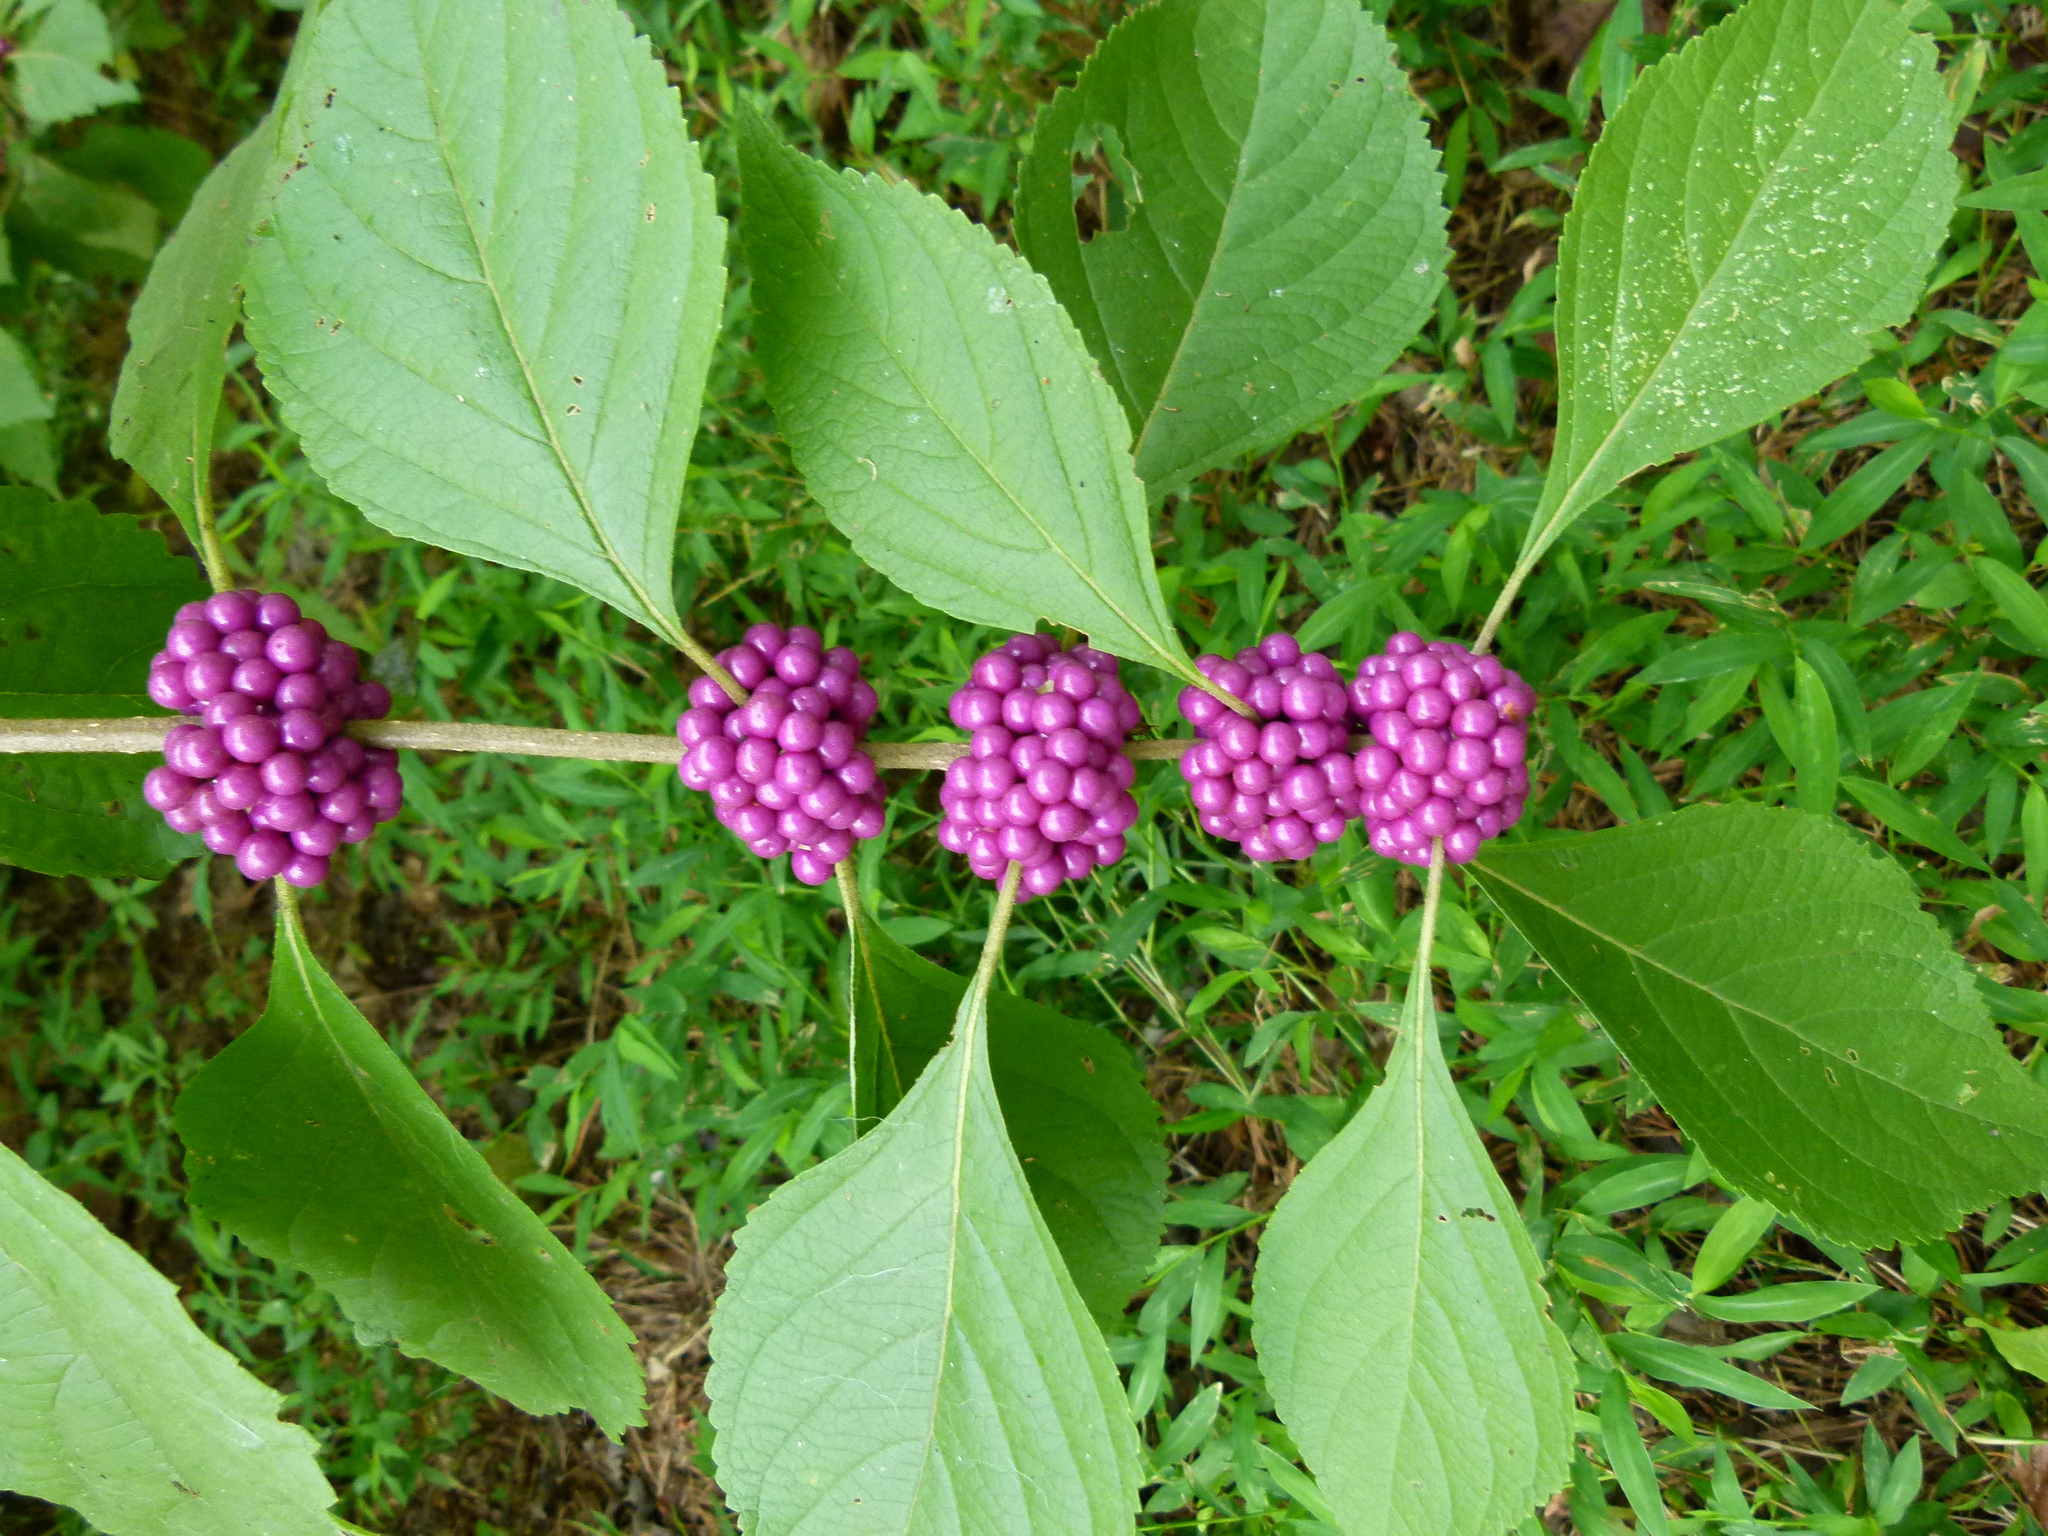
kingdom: Plantae
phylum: Tracheophyta
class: Magnoliopsida
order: Lamiales
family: Lamiaceae
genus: Callicarpa
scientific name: Callicarpa americana
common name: American beautyberry
